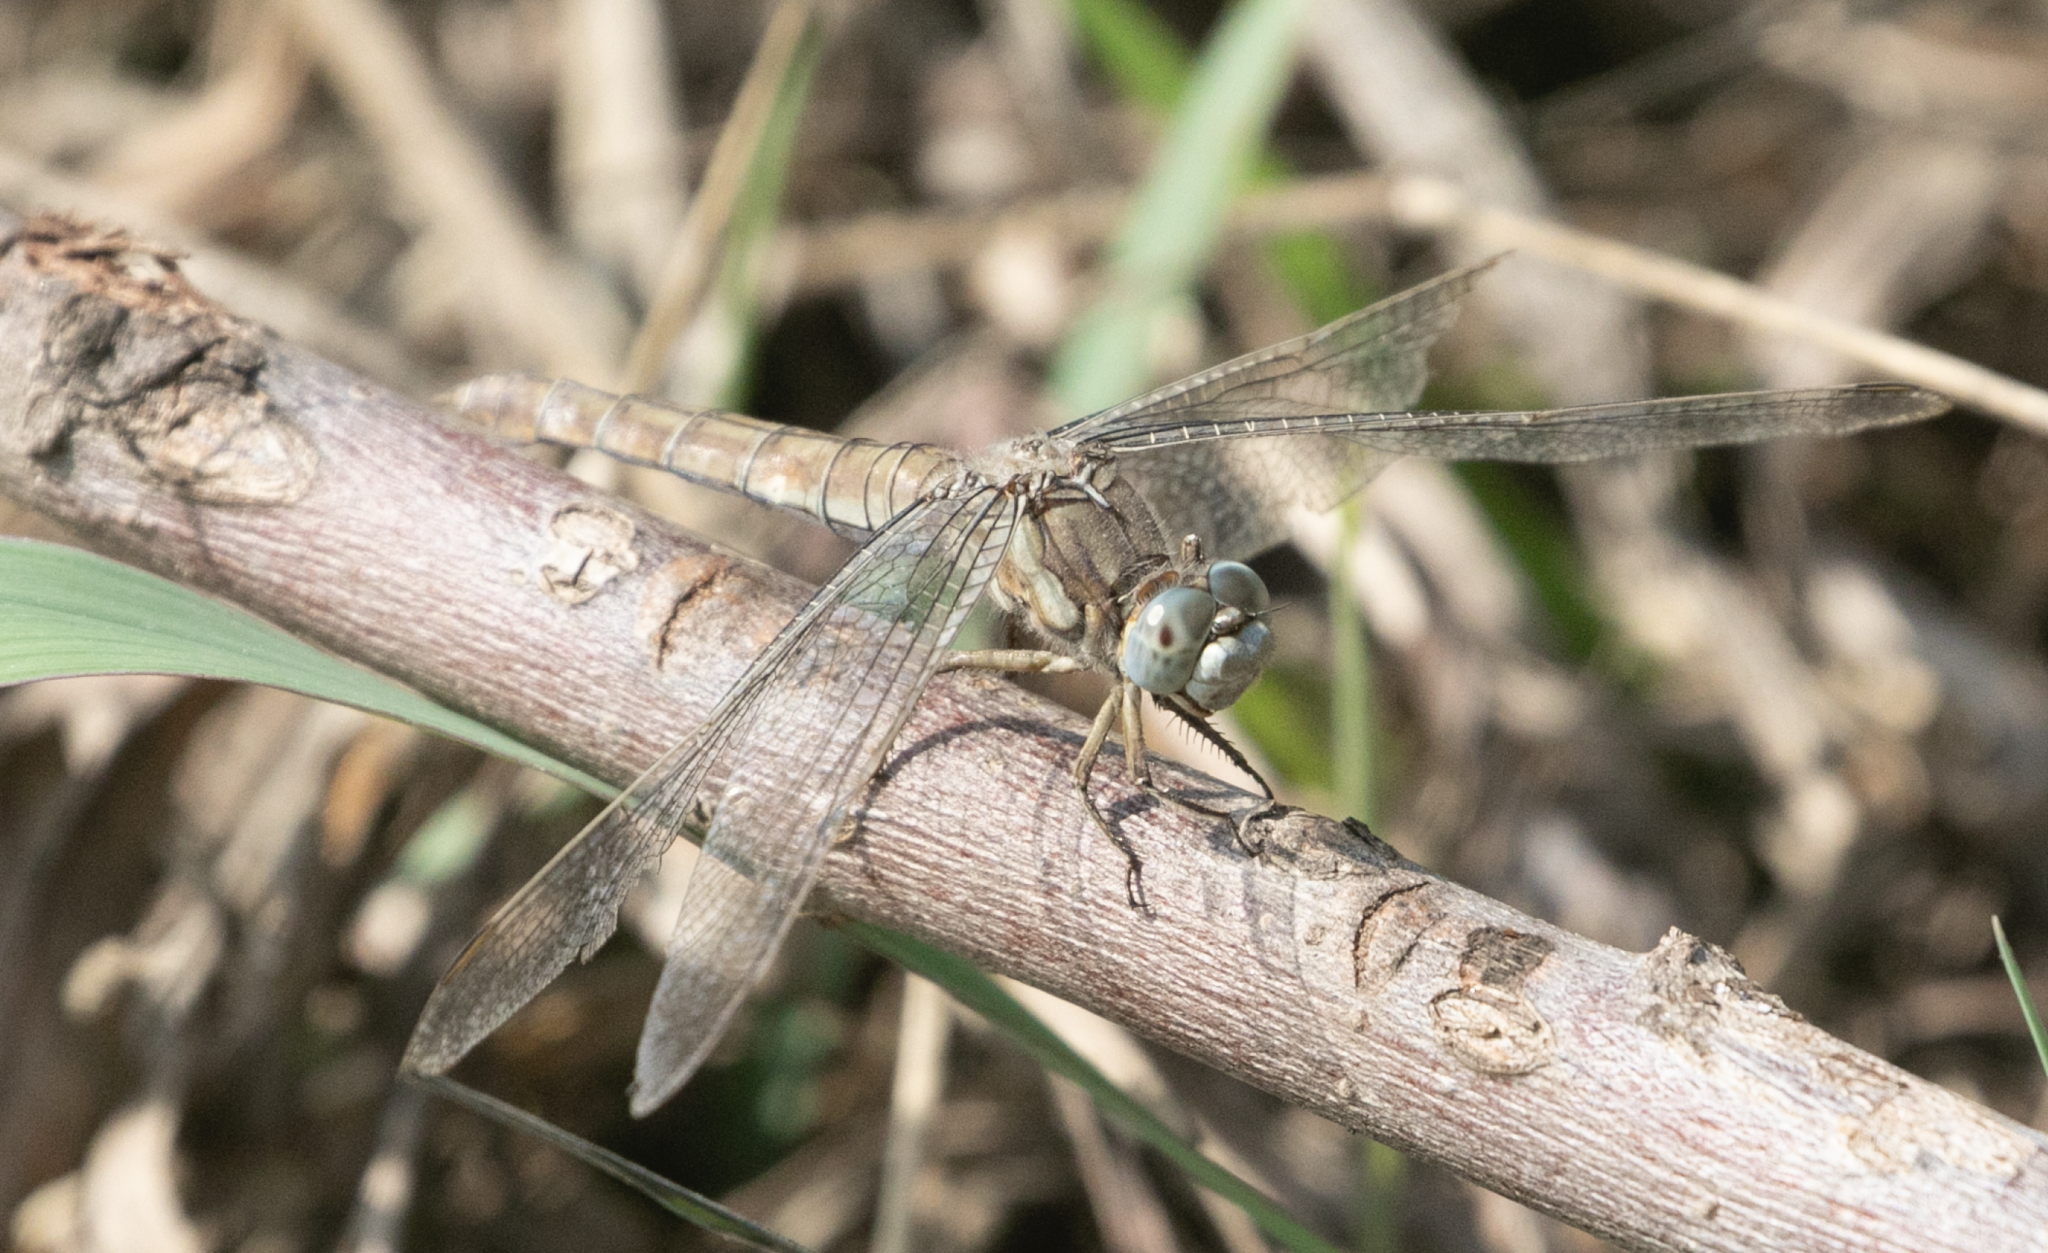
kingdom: Animalia
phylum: Arthropoda
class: Insecta
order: Odonata
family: Libellulidae
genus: Orthetrum
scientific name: Orthetrum brunneum
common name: Southern skimmer
